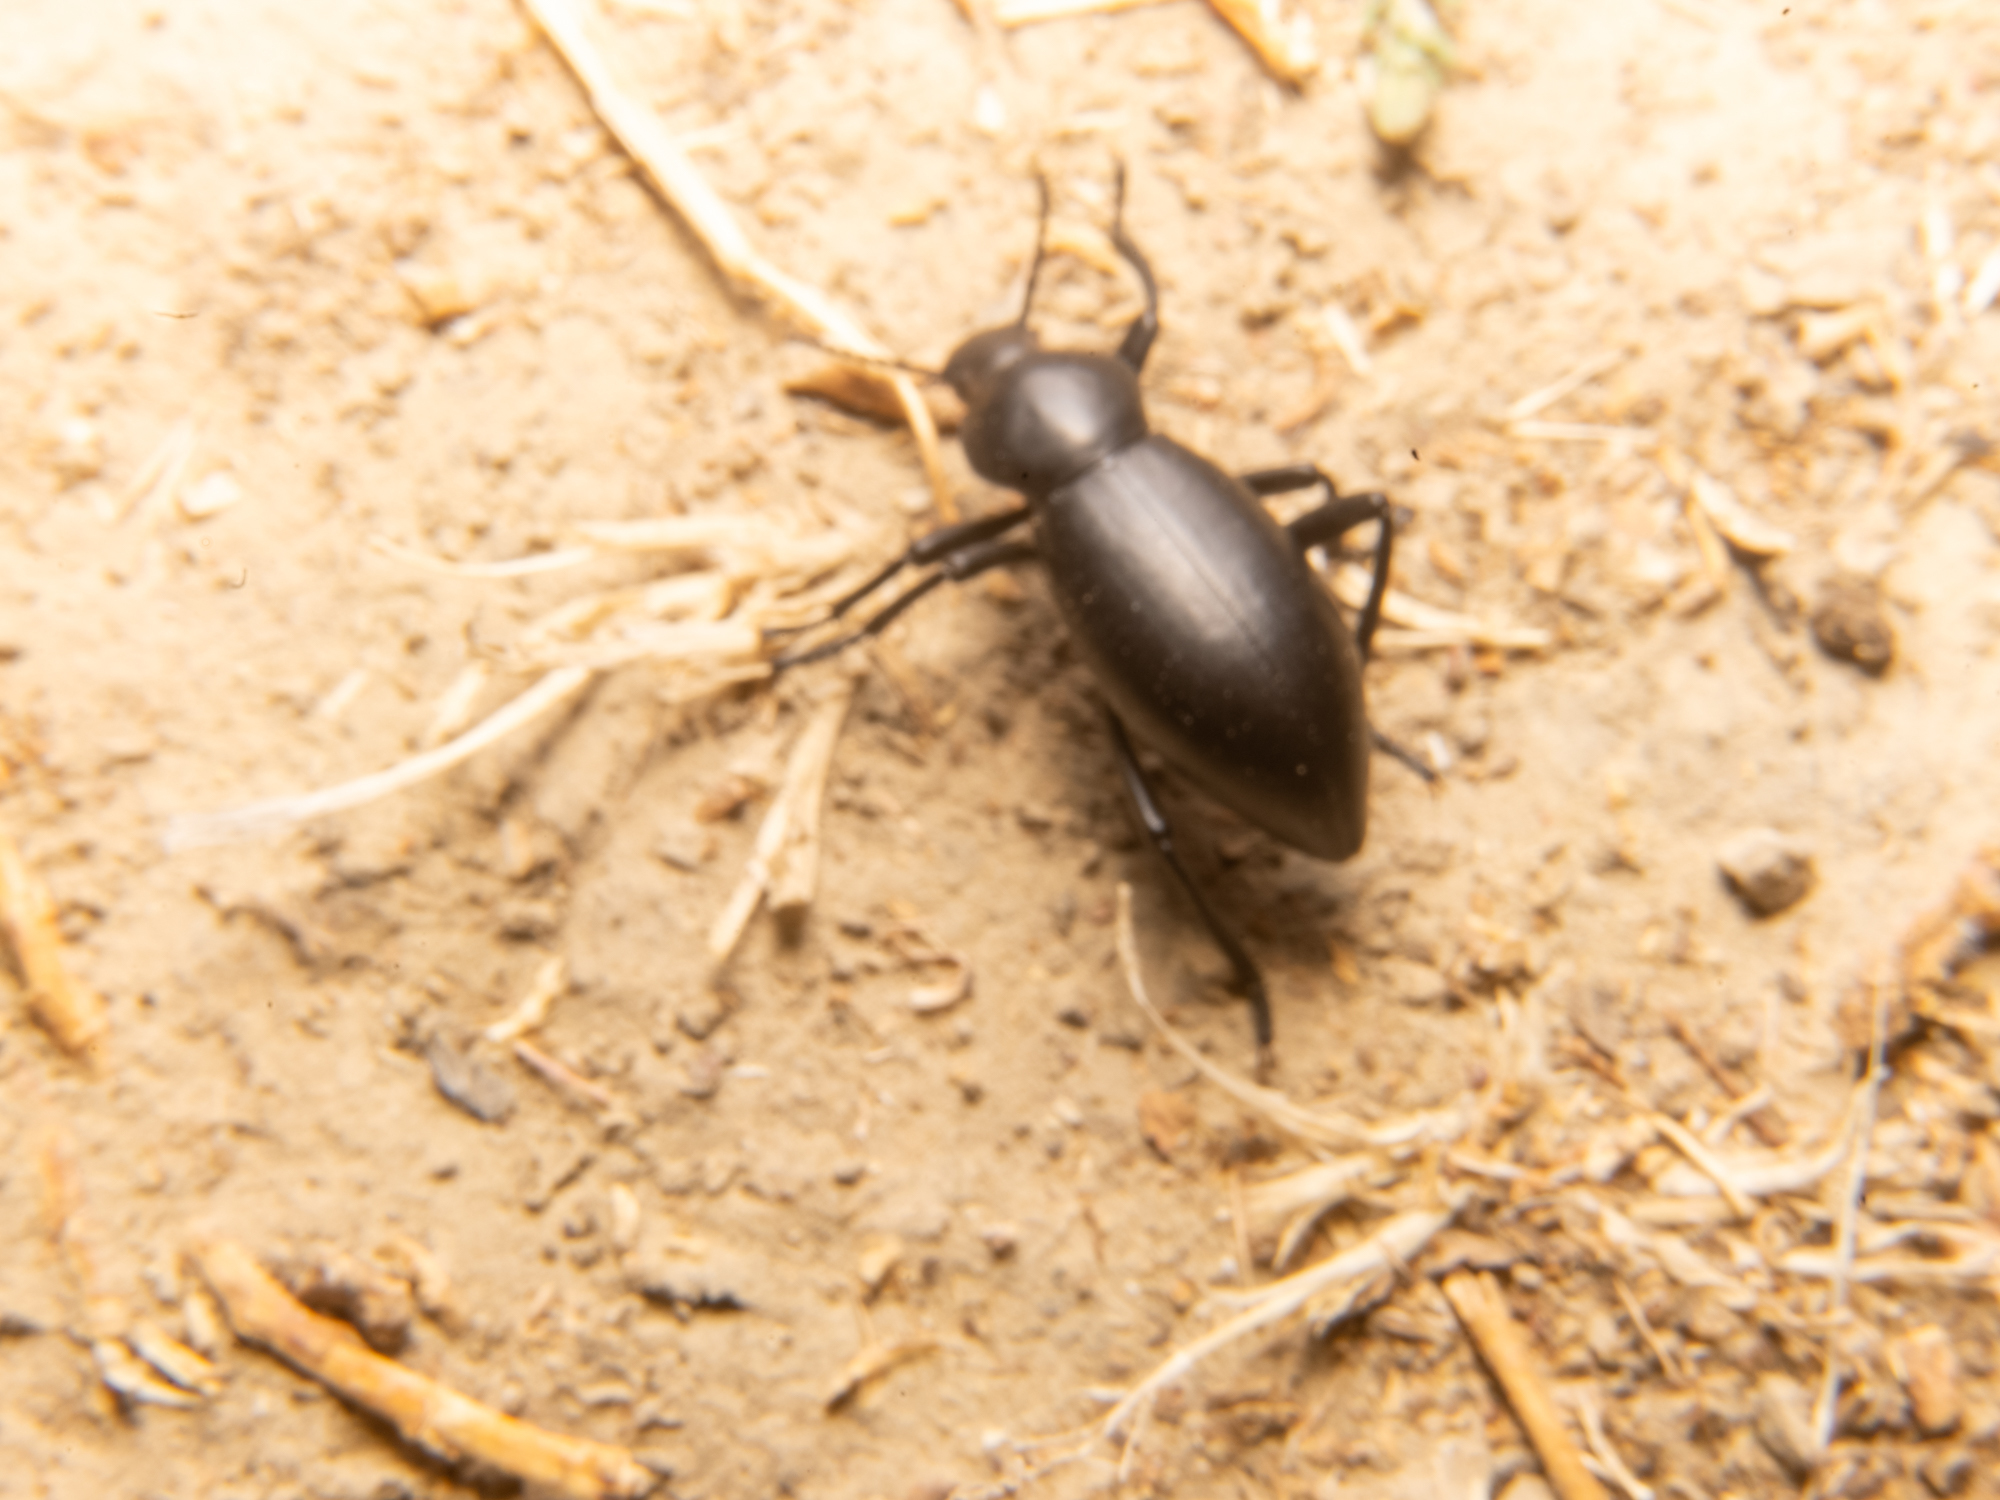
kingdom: Animalia
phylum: Arthropoda
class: Insecta
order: Coleoptera
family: Tenebrionidae
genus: Eleodes
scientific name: Eleodes dentipes
